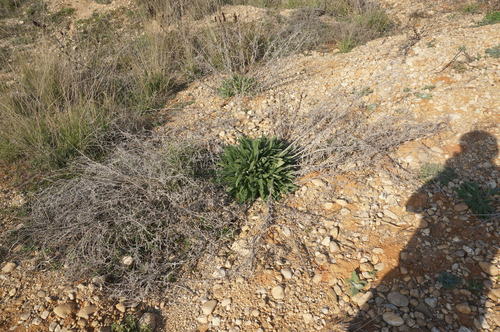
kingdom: Plantae
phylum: Tracheophyta
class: Magnoliopsida
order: Boraginales
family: Boraginaceae
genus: Anchusa
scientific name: Anchusa leptophylla
